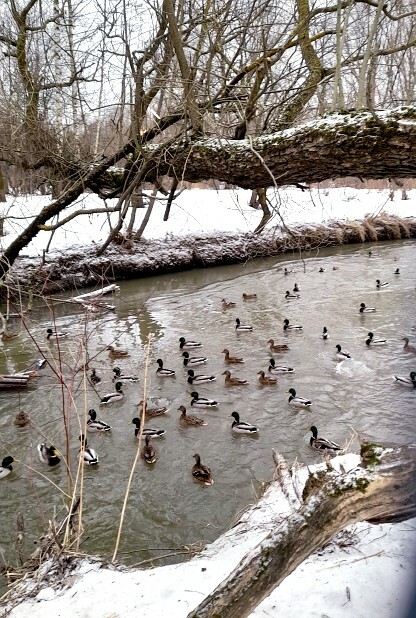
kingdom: Animalia
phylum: Chordata
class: Aves
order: Anseriformes
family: Anatidae
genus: Anas
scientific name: Anas platyrhynchos
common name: Mallard
